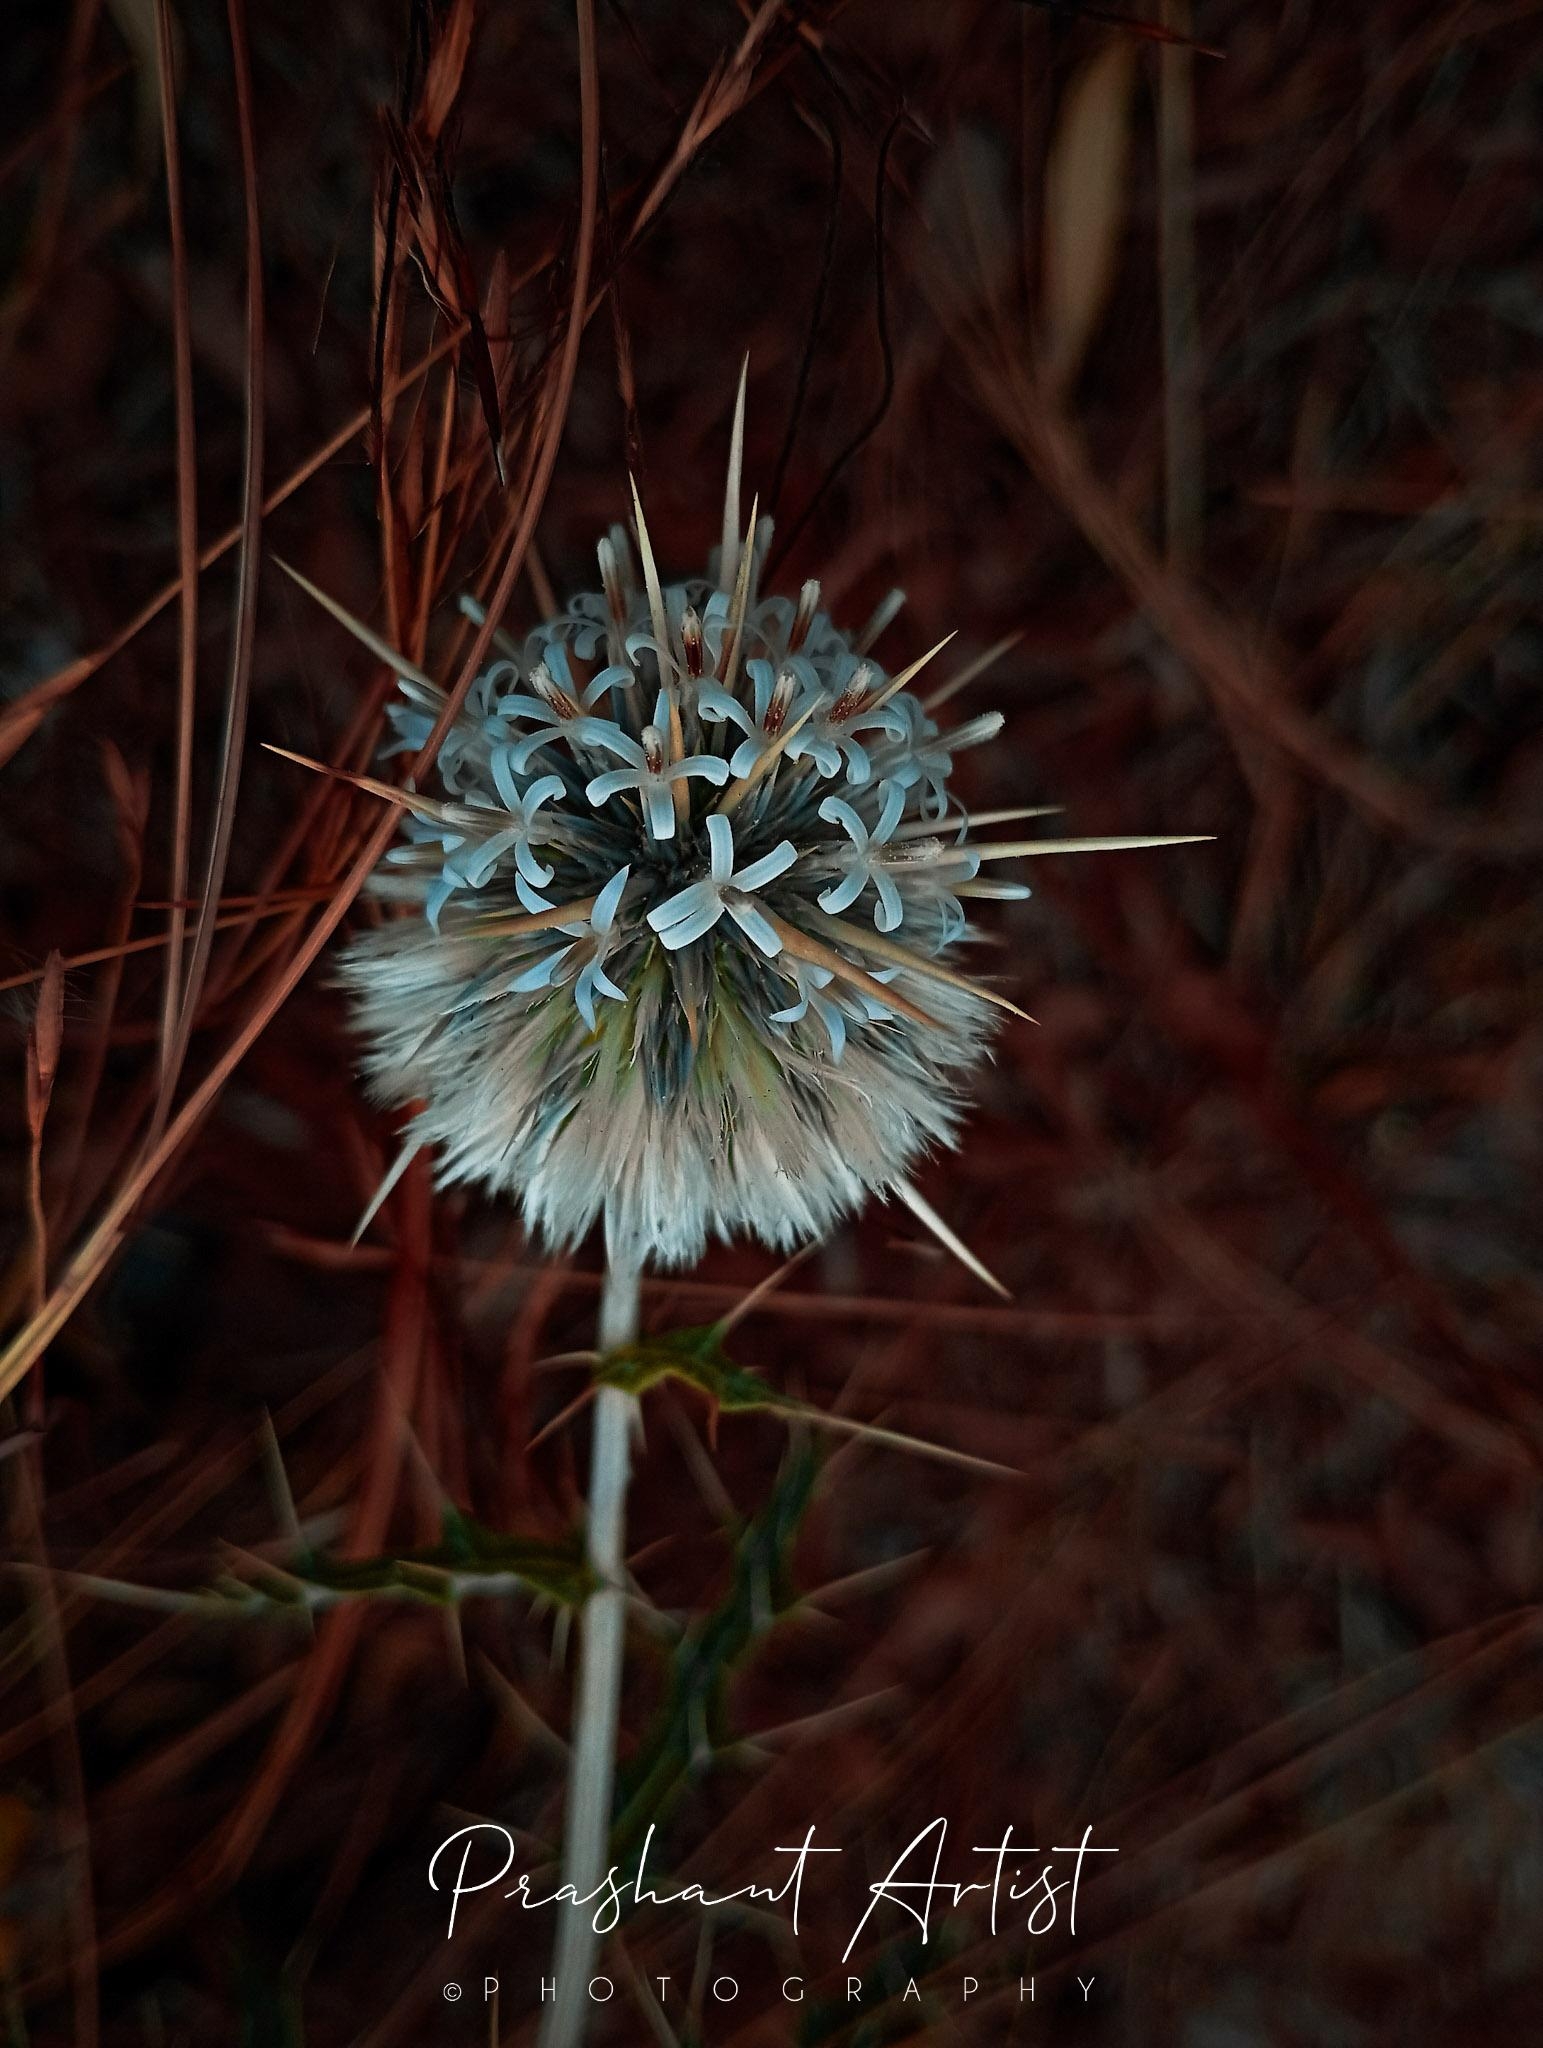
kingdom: Plantae
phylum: Tracheophyta
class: Magnoliopsida
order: Asterales
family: Asteraceae
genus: Echinops
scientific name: Echinops echinatus
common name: Indian globe thistle
